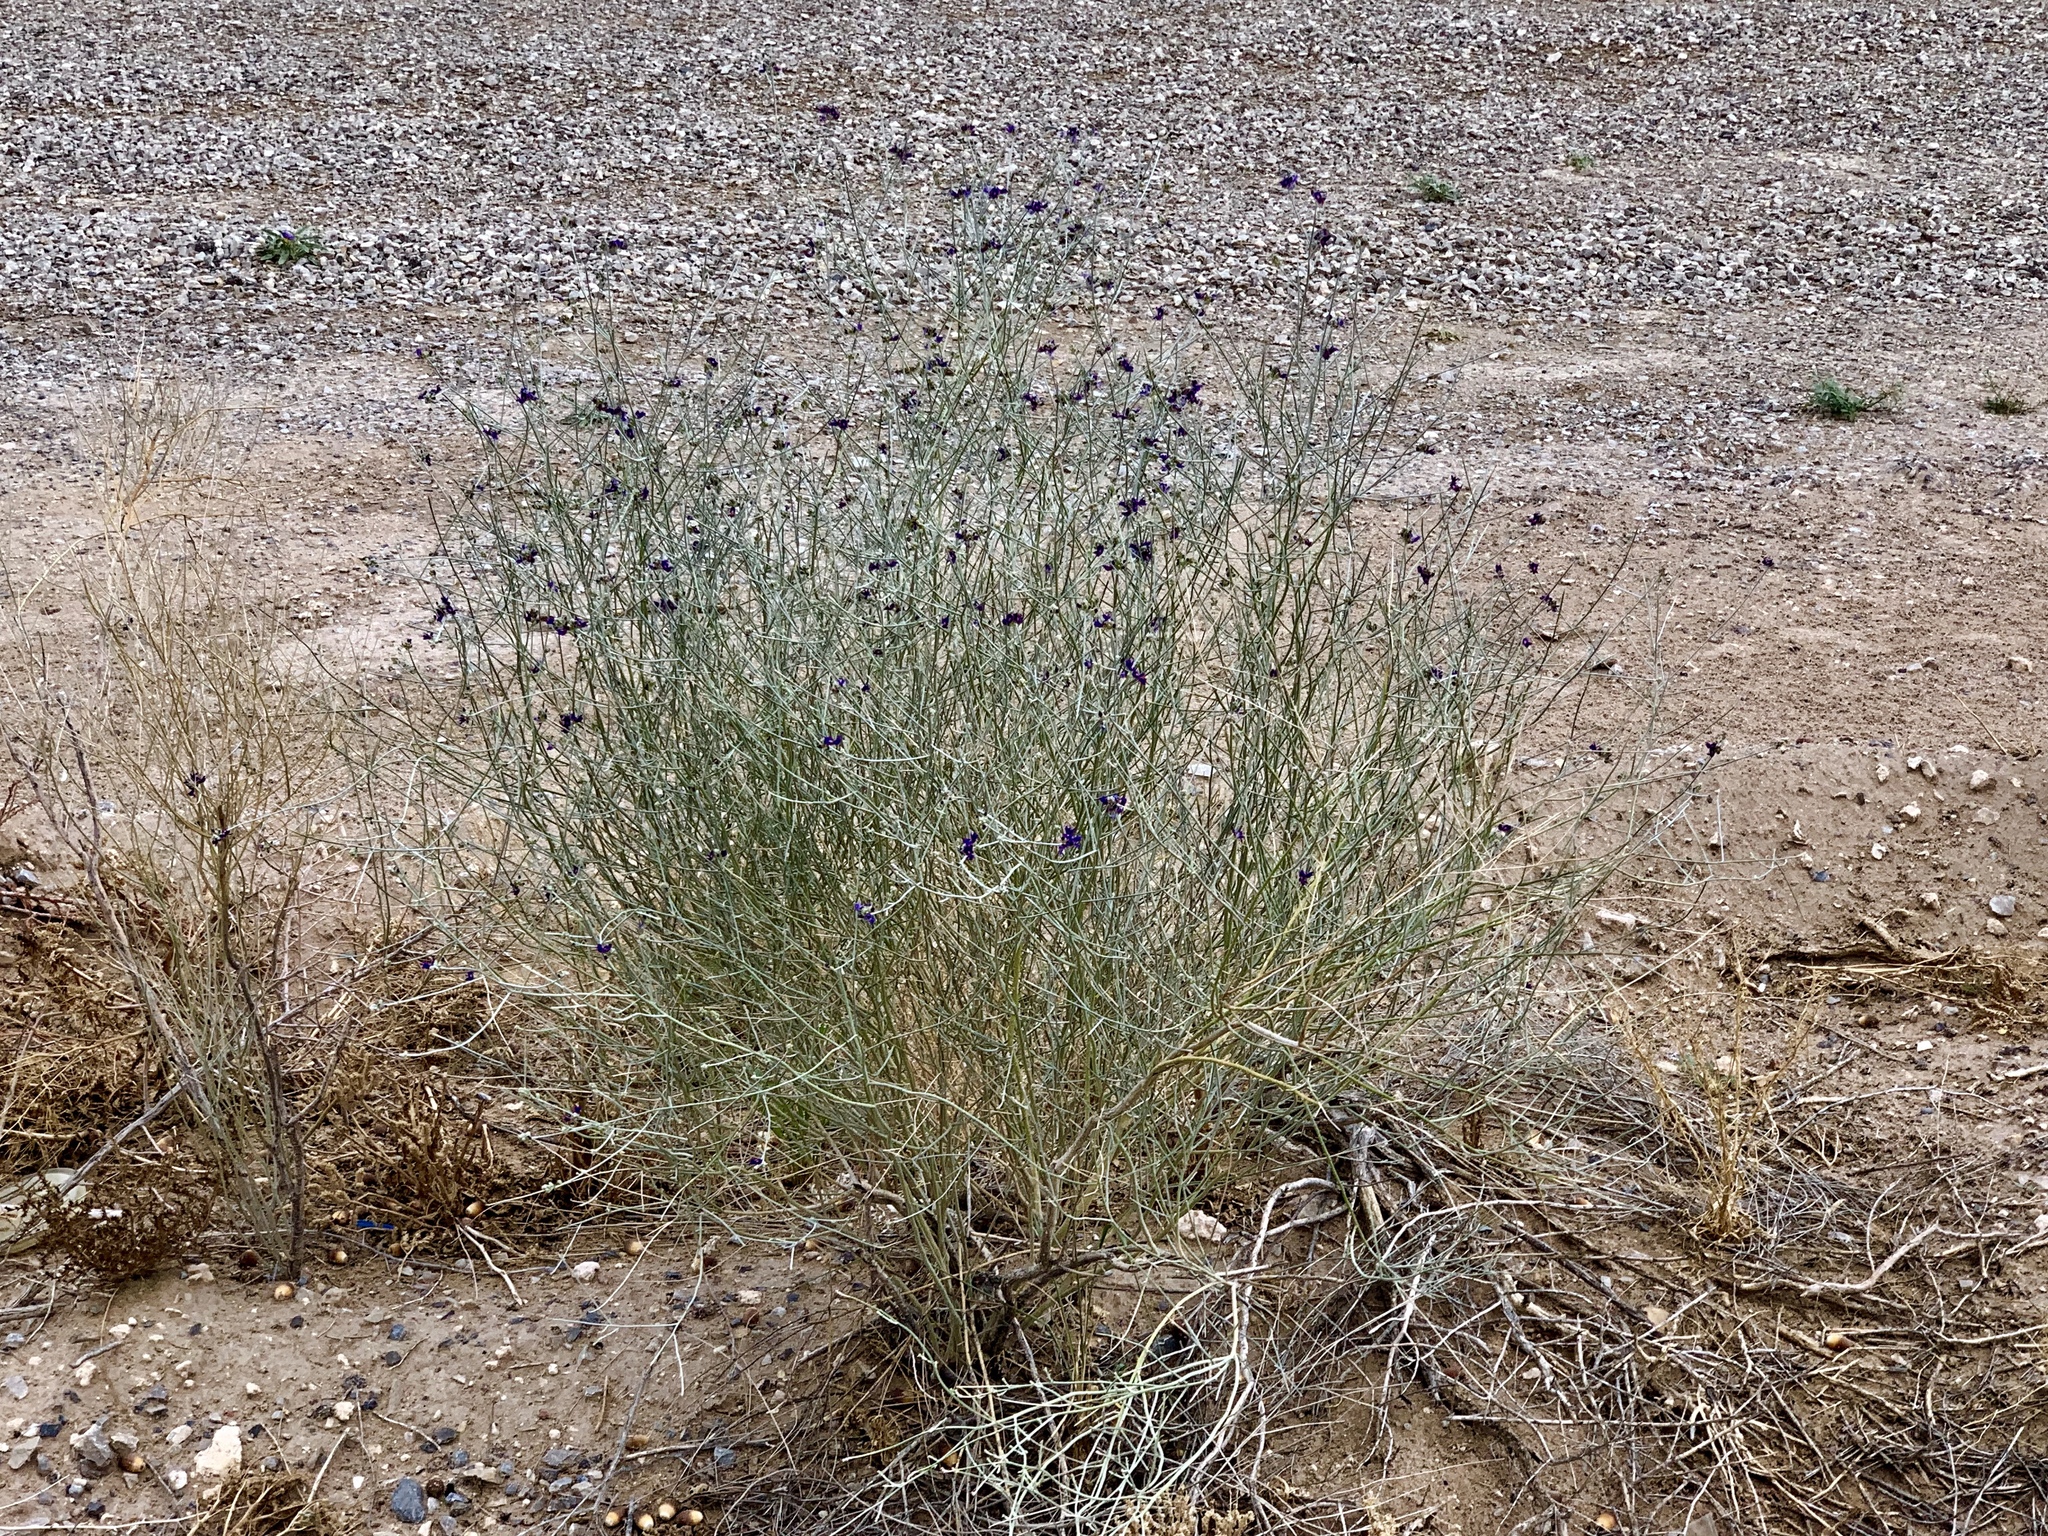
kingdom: Plantae
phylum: Tracheophyta
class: Magnoliopsida
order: Fabales
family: Fabaceae
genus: Psorothamnus
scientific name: Psorothamnus scoparius
